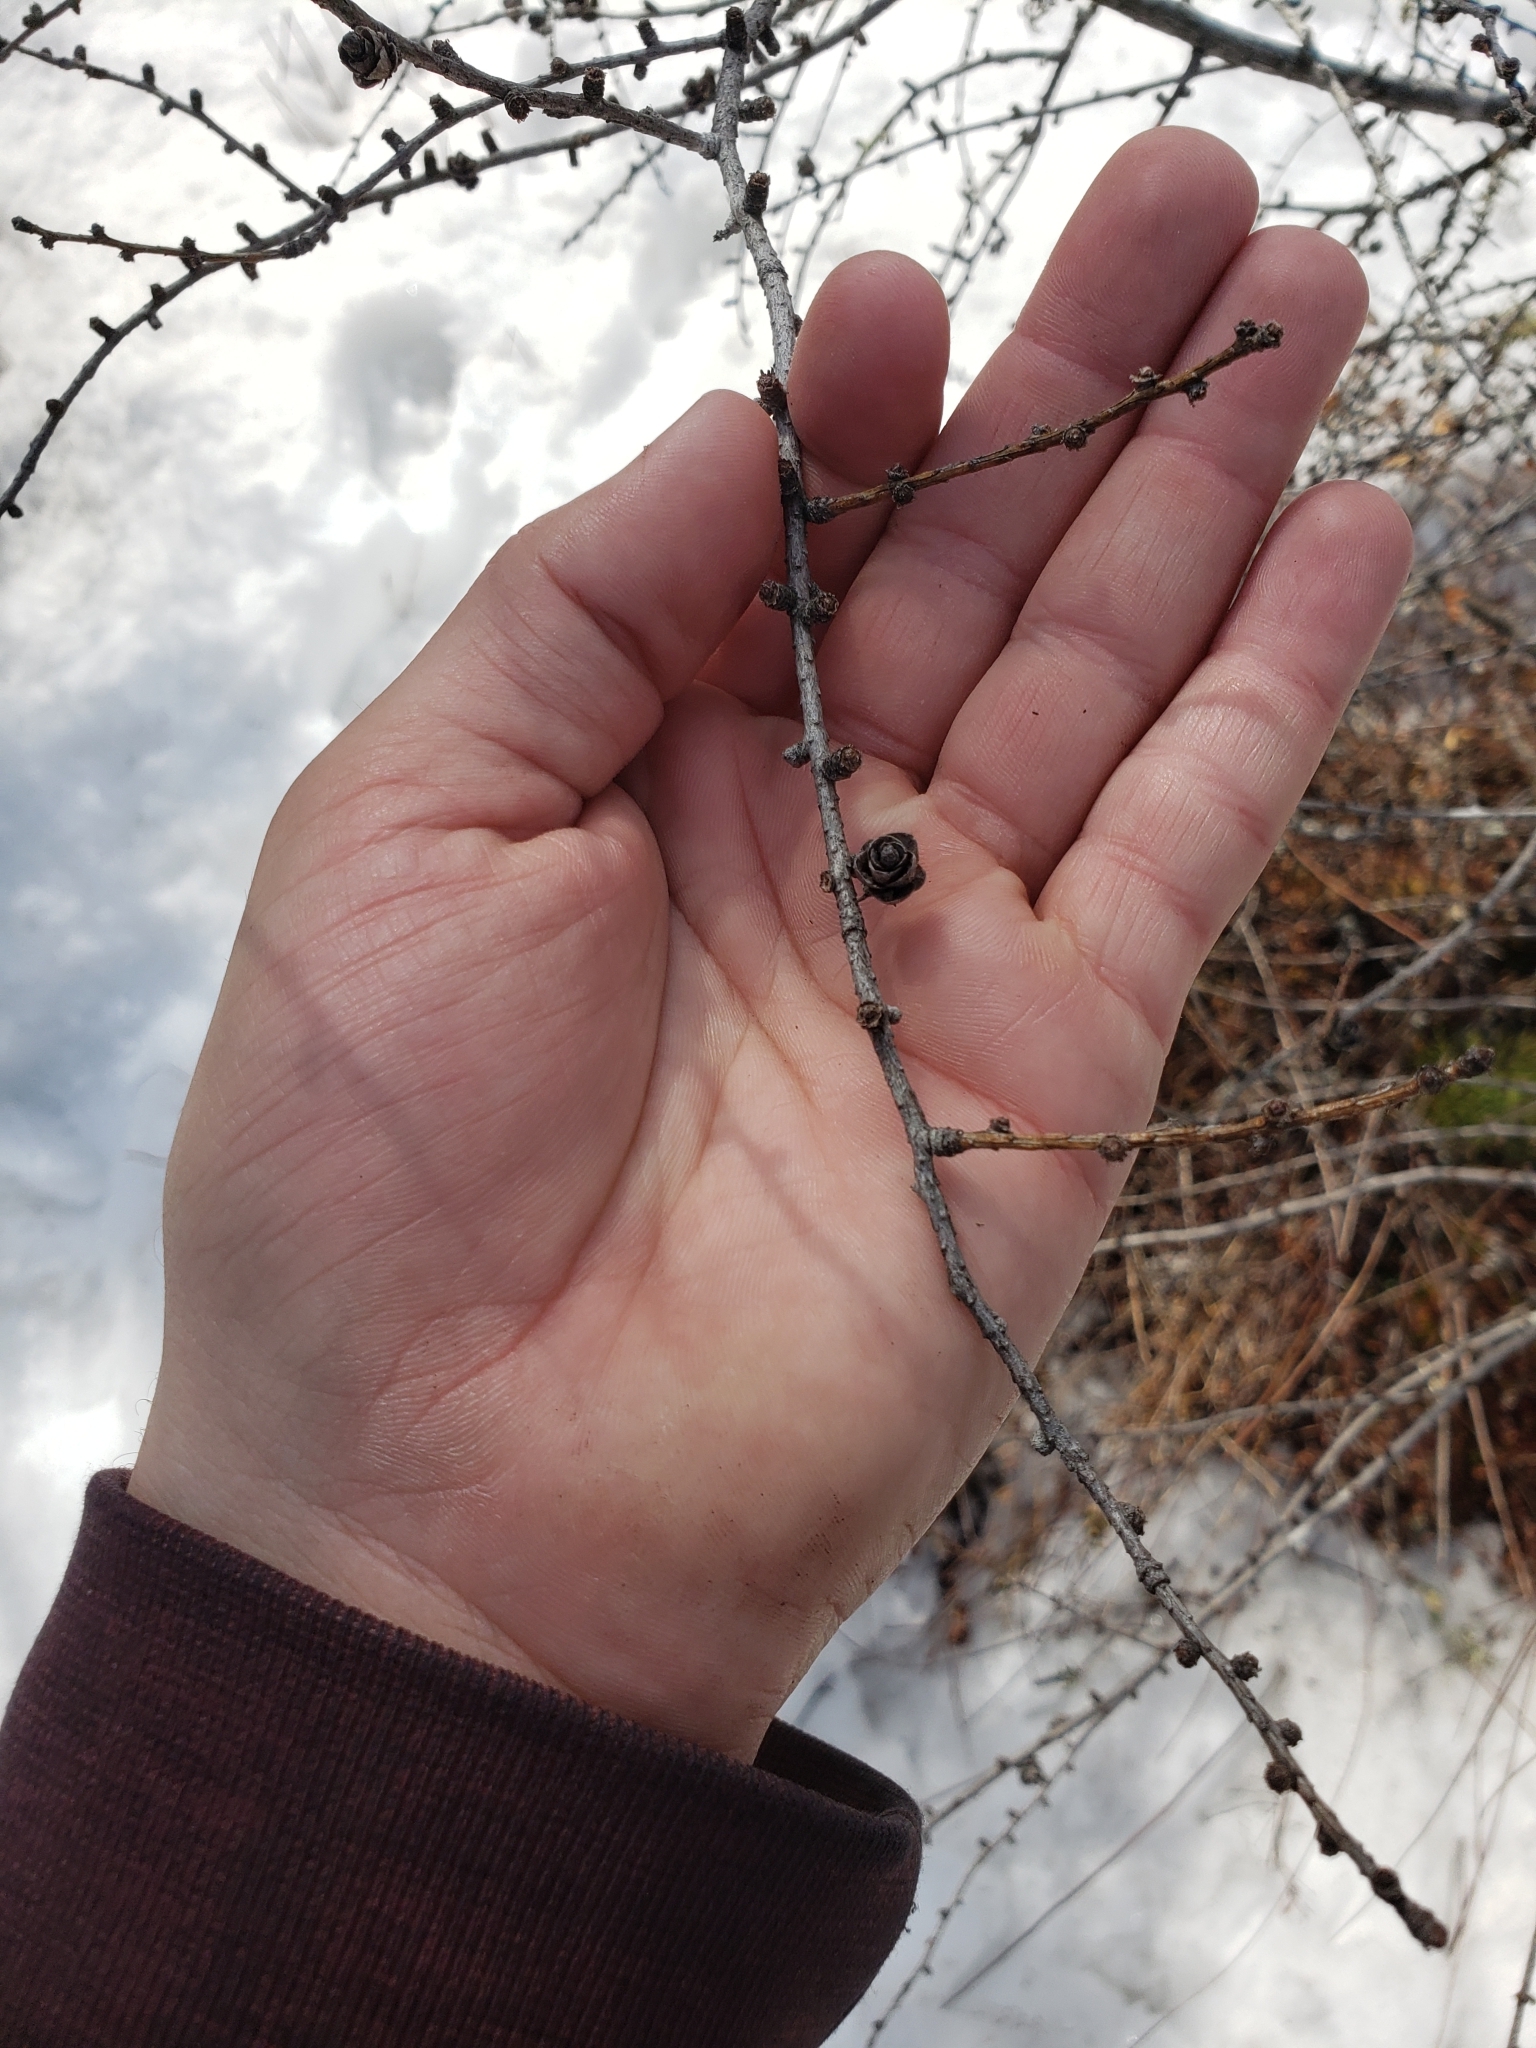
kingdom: Plantae
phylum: Tracheophyta
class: Pinopsida
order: Pinales
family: Pinaceae
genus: Larix
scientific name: Larix laricina
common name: American larch
